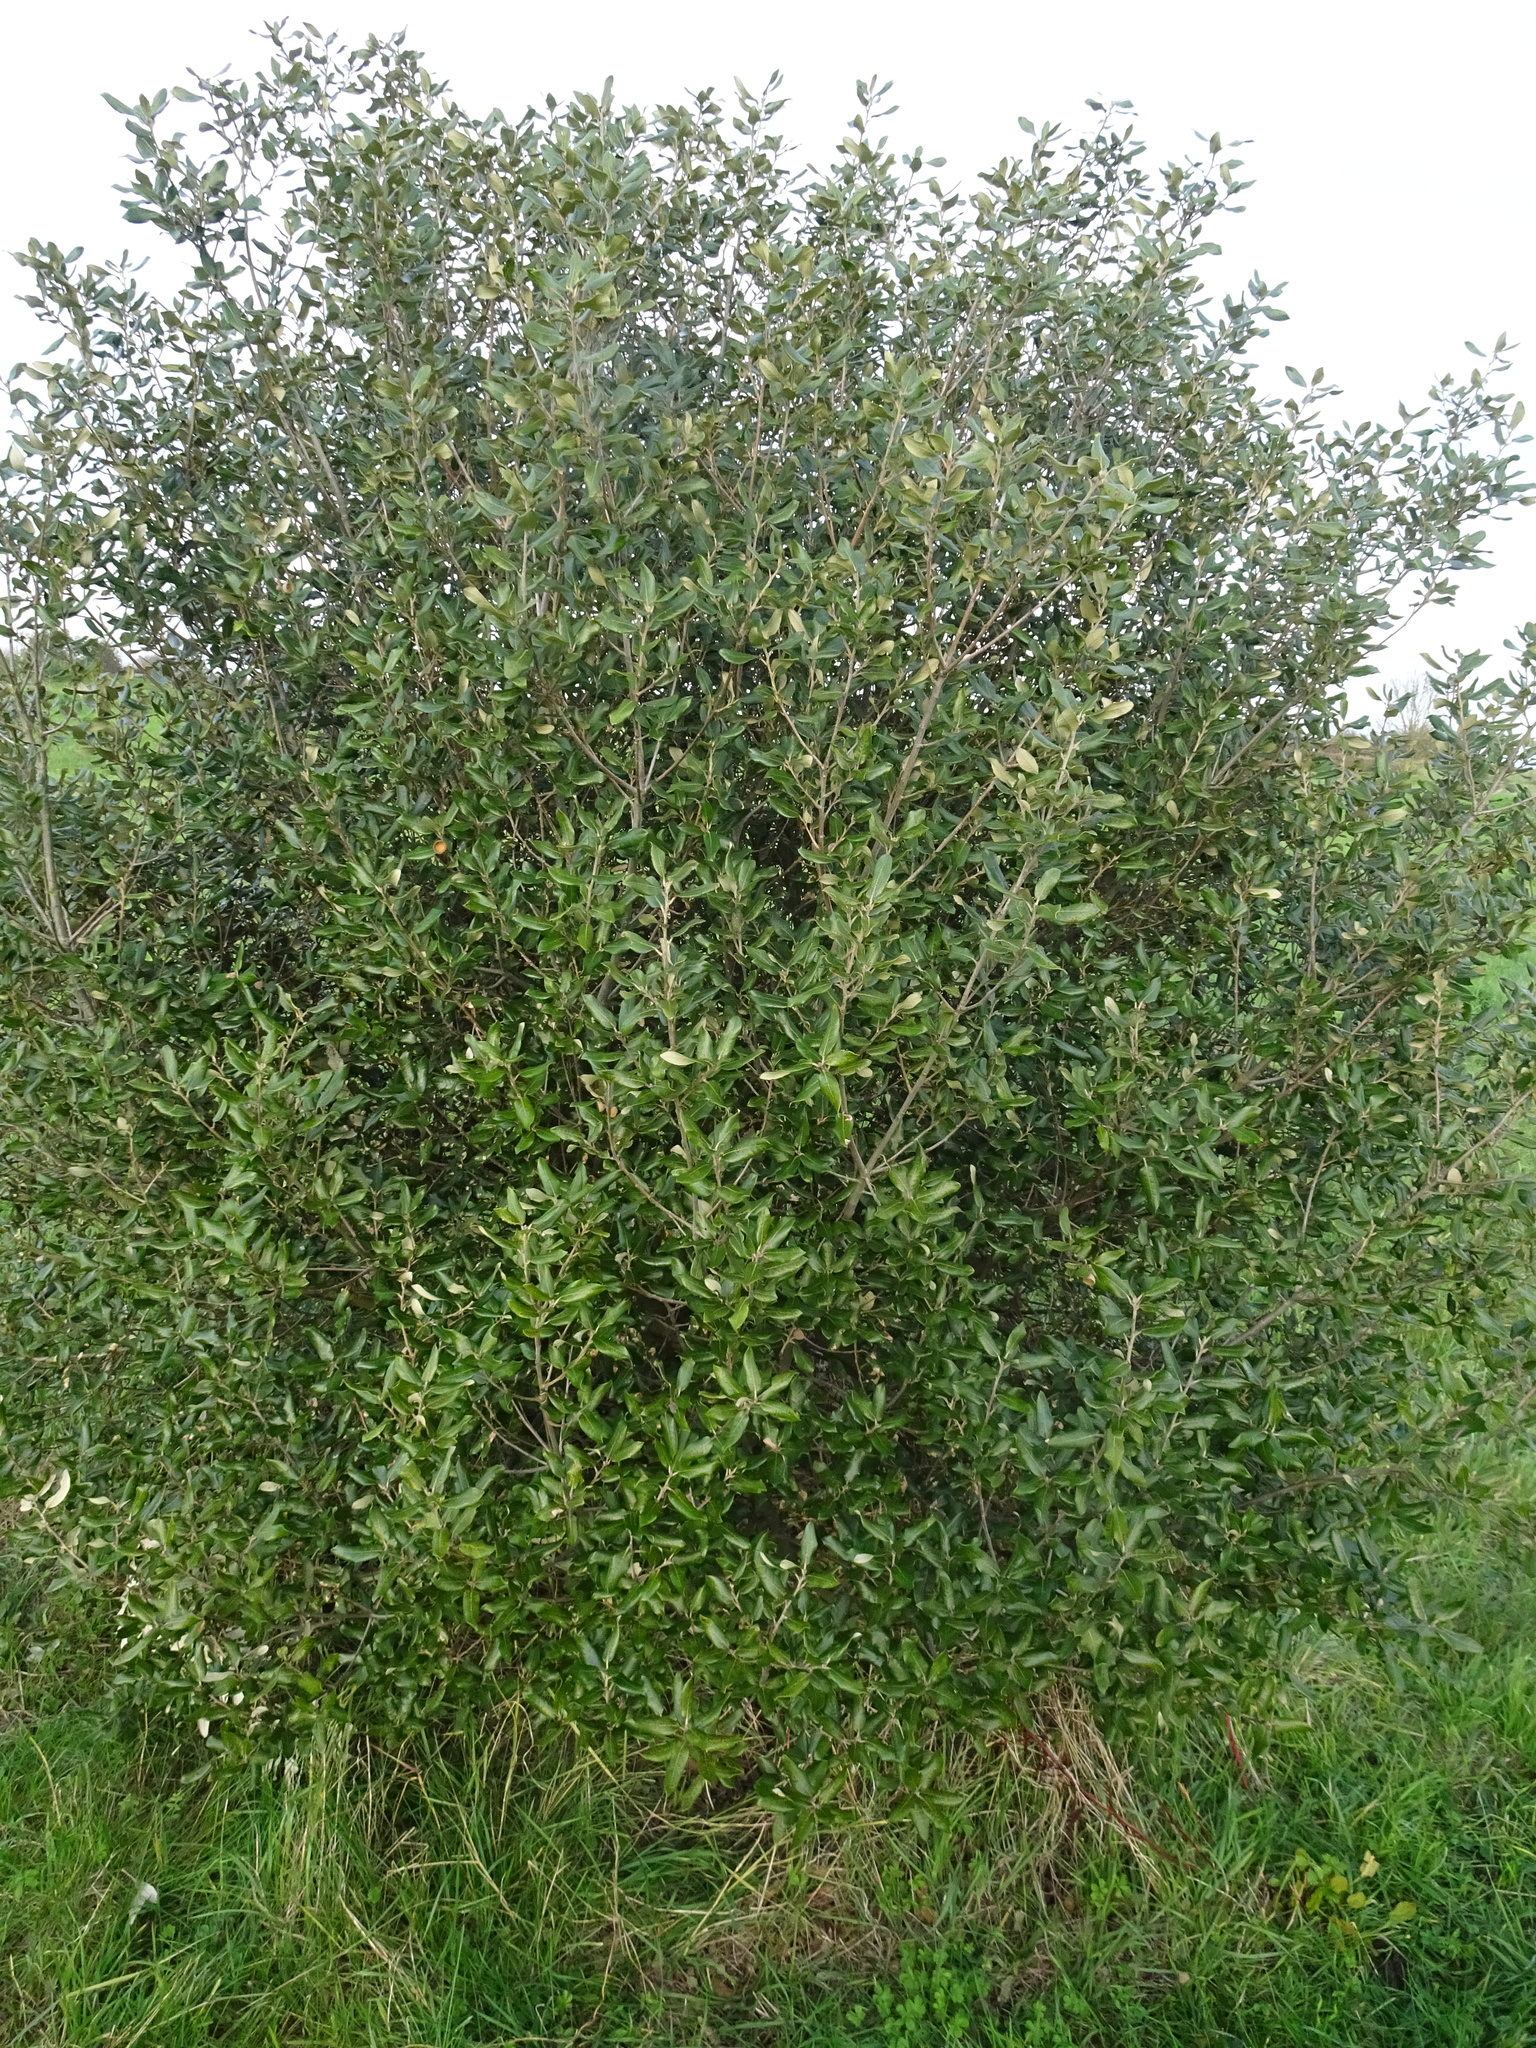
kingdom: Plantae
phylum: Tracheophyta
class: Magnoliopsida
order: Fagales
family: Fagaceae
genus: Quercus
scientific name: Quercus ilex
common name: Evergreen oak
